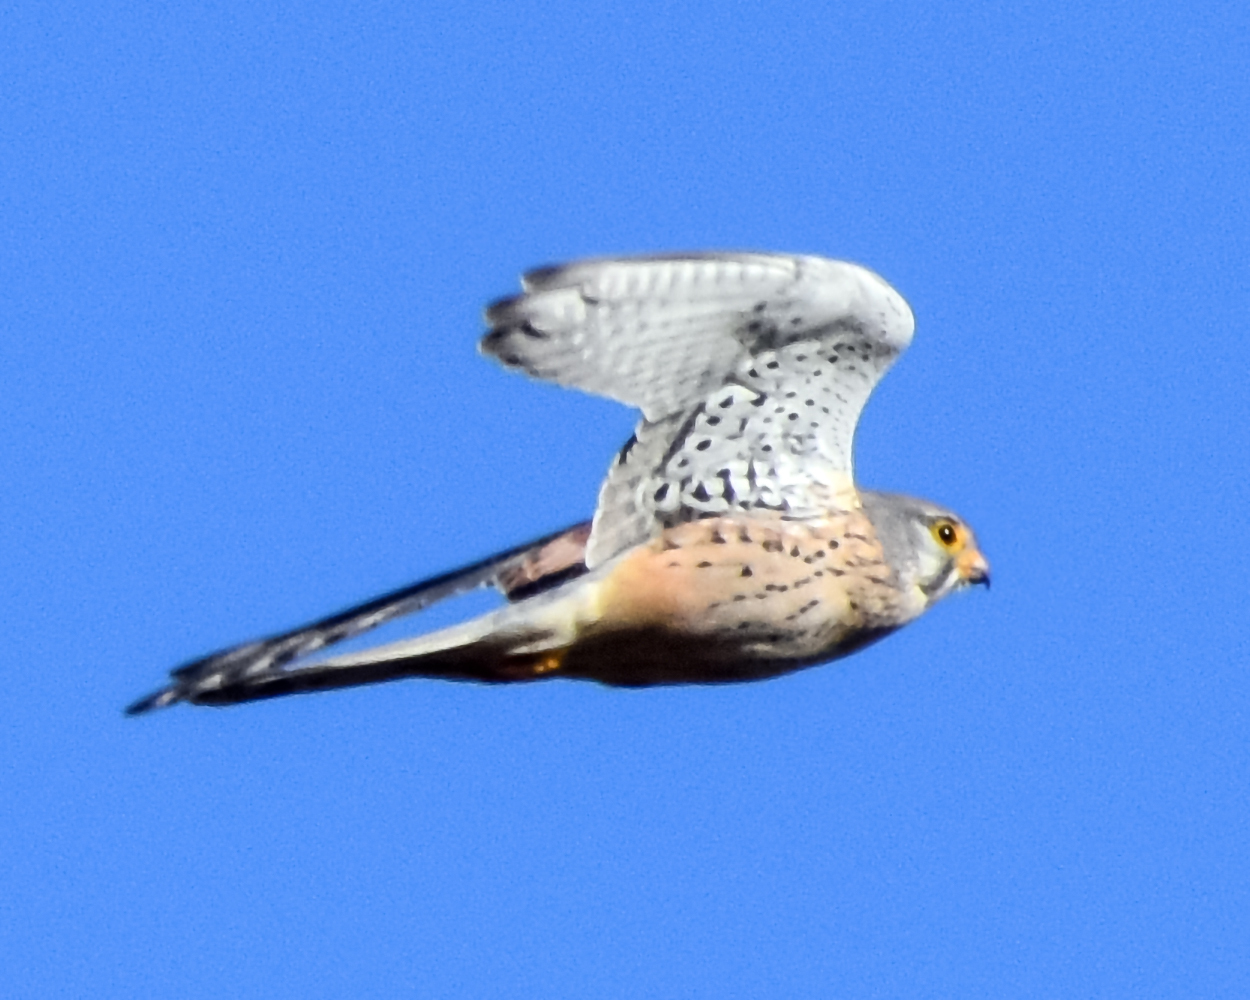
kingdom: Animalia
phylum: Chordata
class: Aves
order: Falconiformes
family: Falconidae
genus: Falco
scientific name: Falco tinnunculus
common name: Common kestrel
